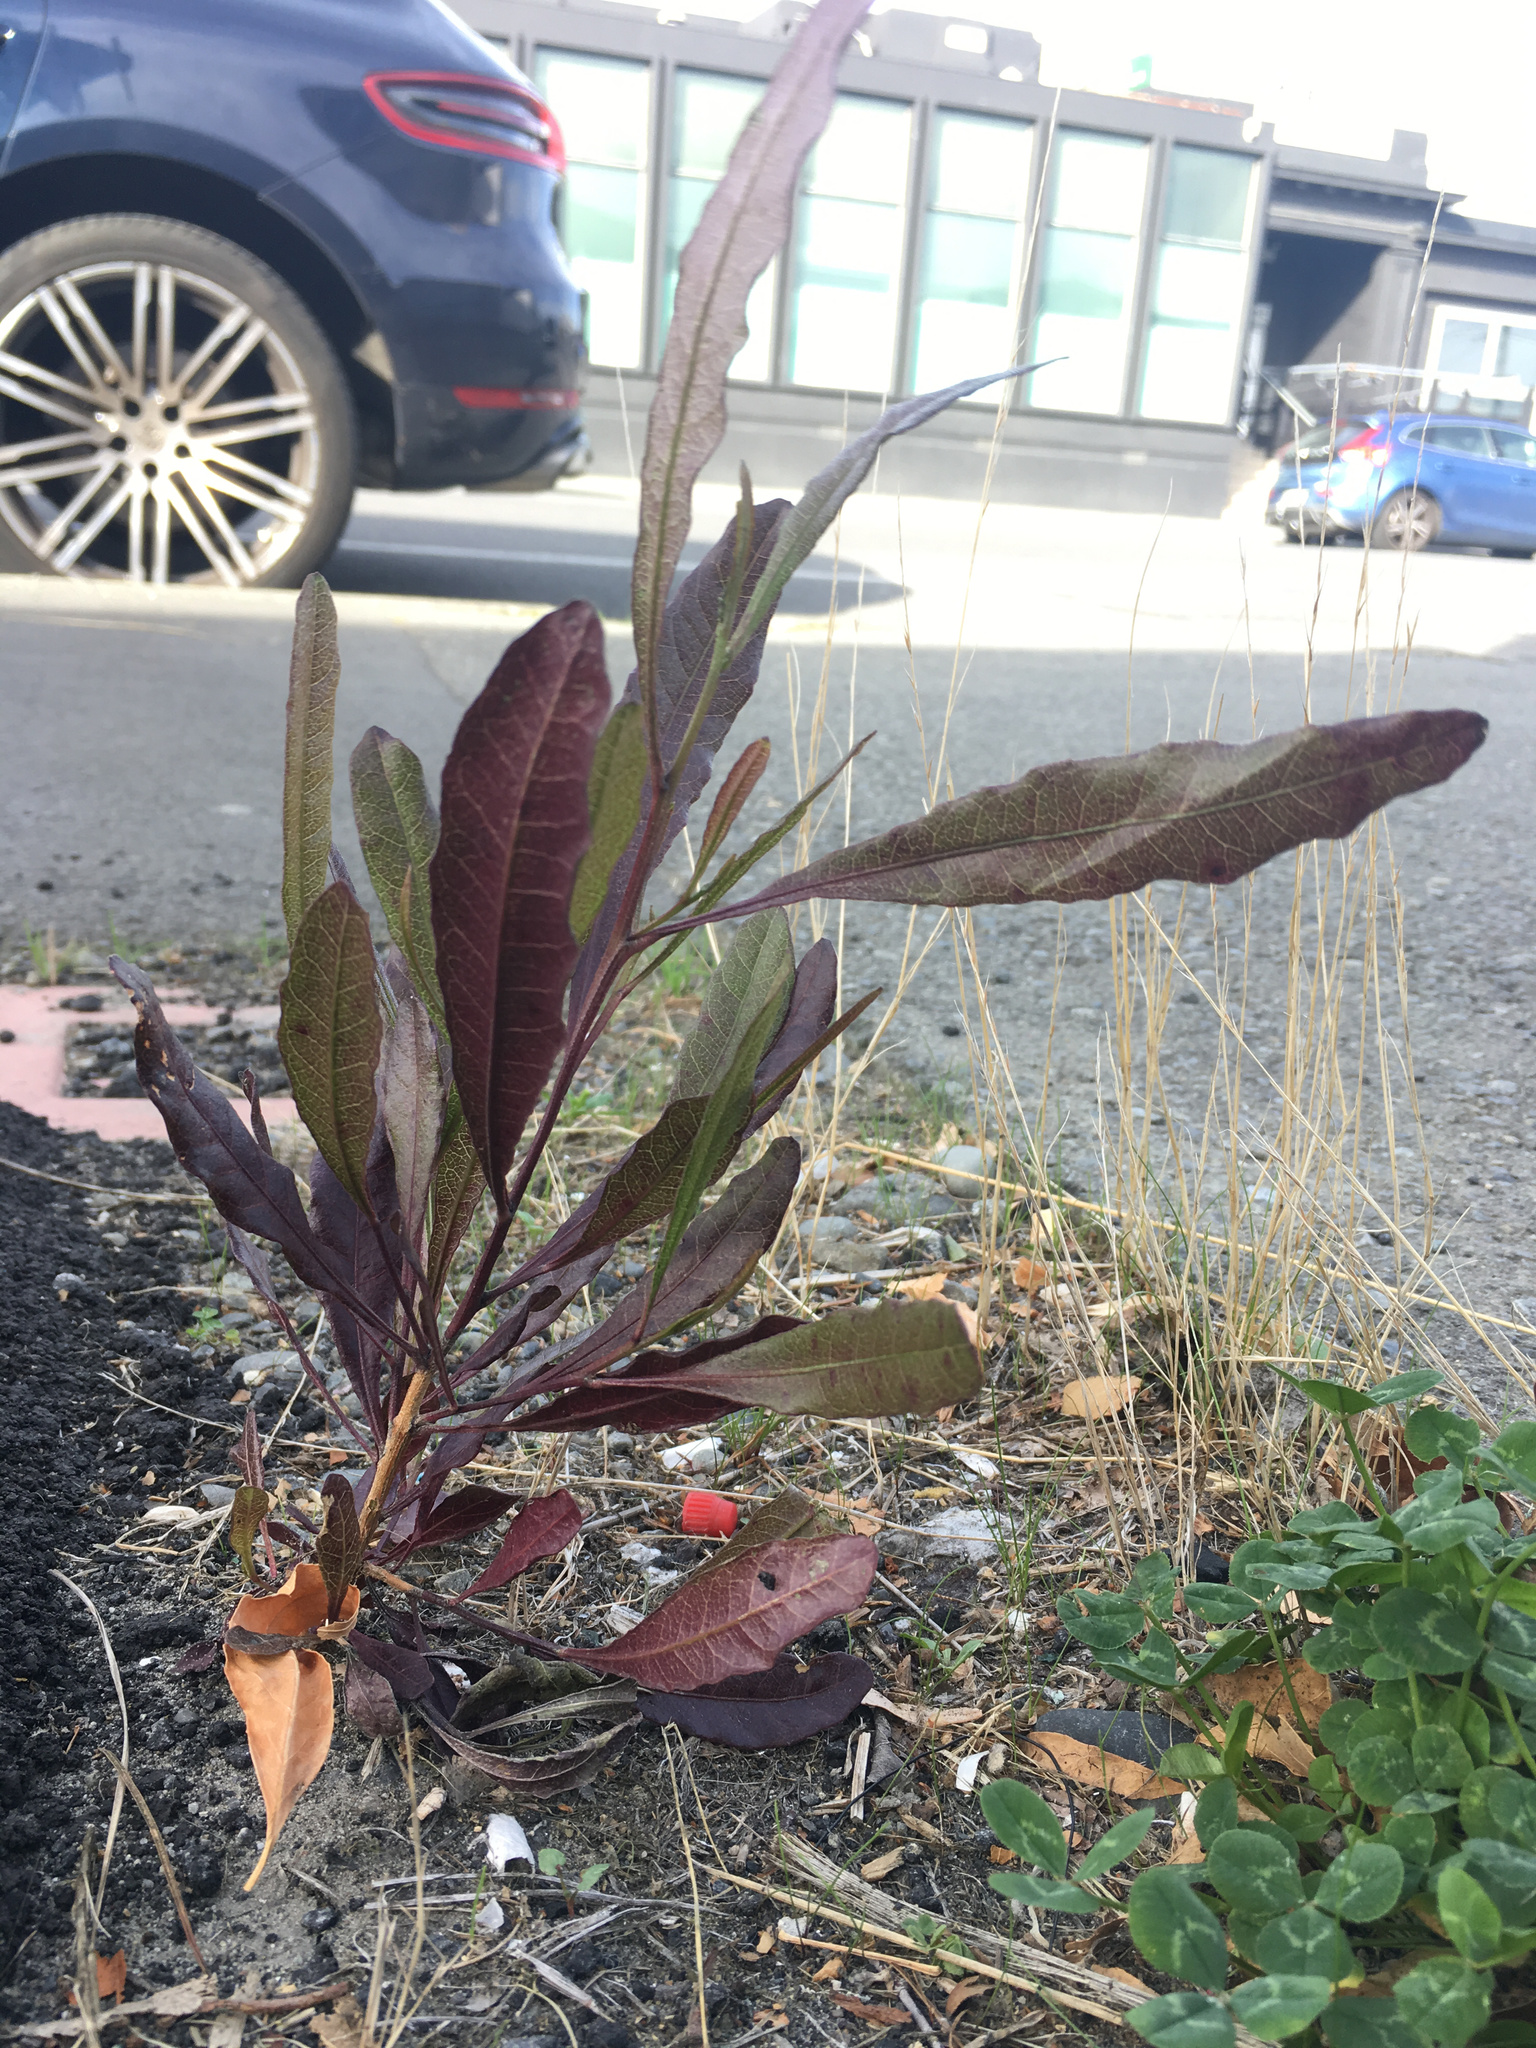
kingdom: Plantae
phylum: Tracheophyta
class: Magnoliopsida
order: Sapindales
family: Sapindaceae
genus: Dodonaea
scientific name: Dodonaea viscosa
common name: Hopbush
